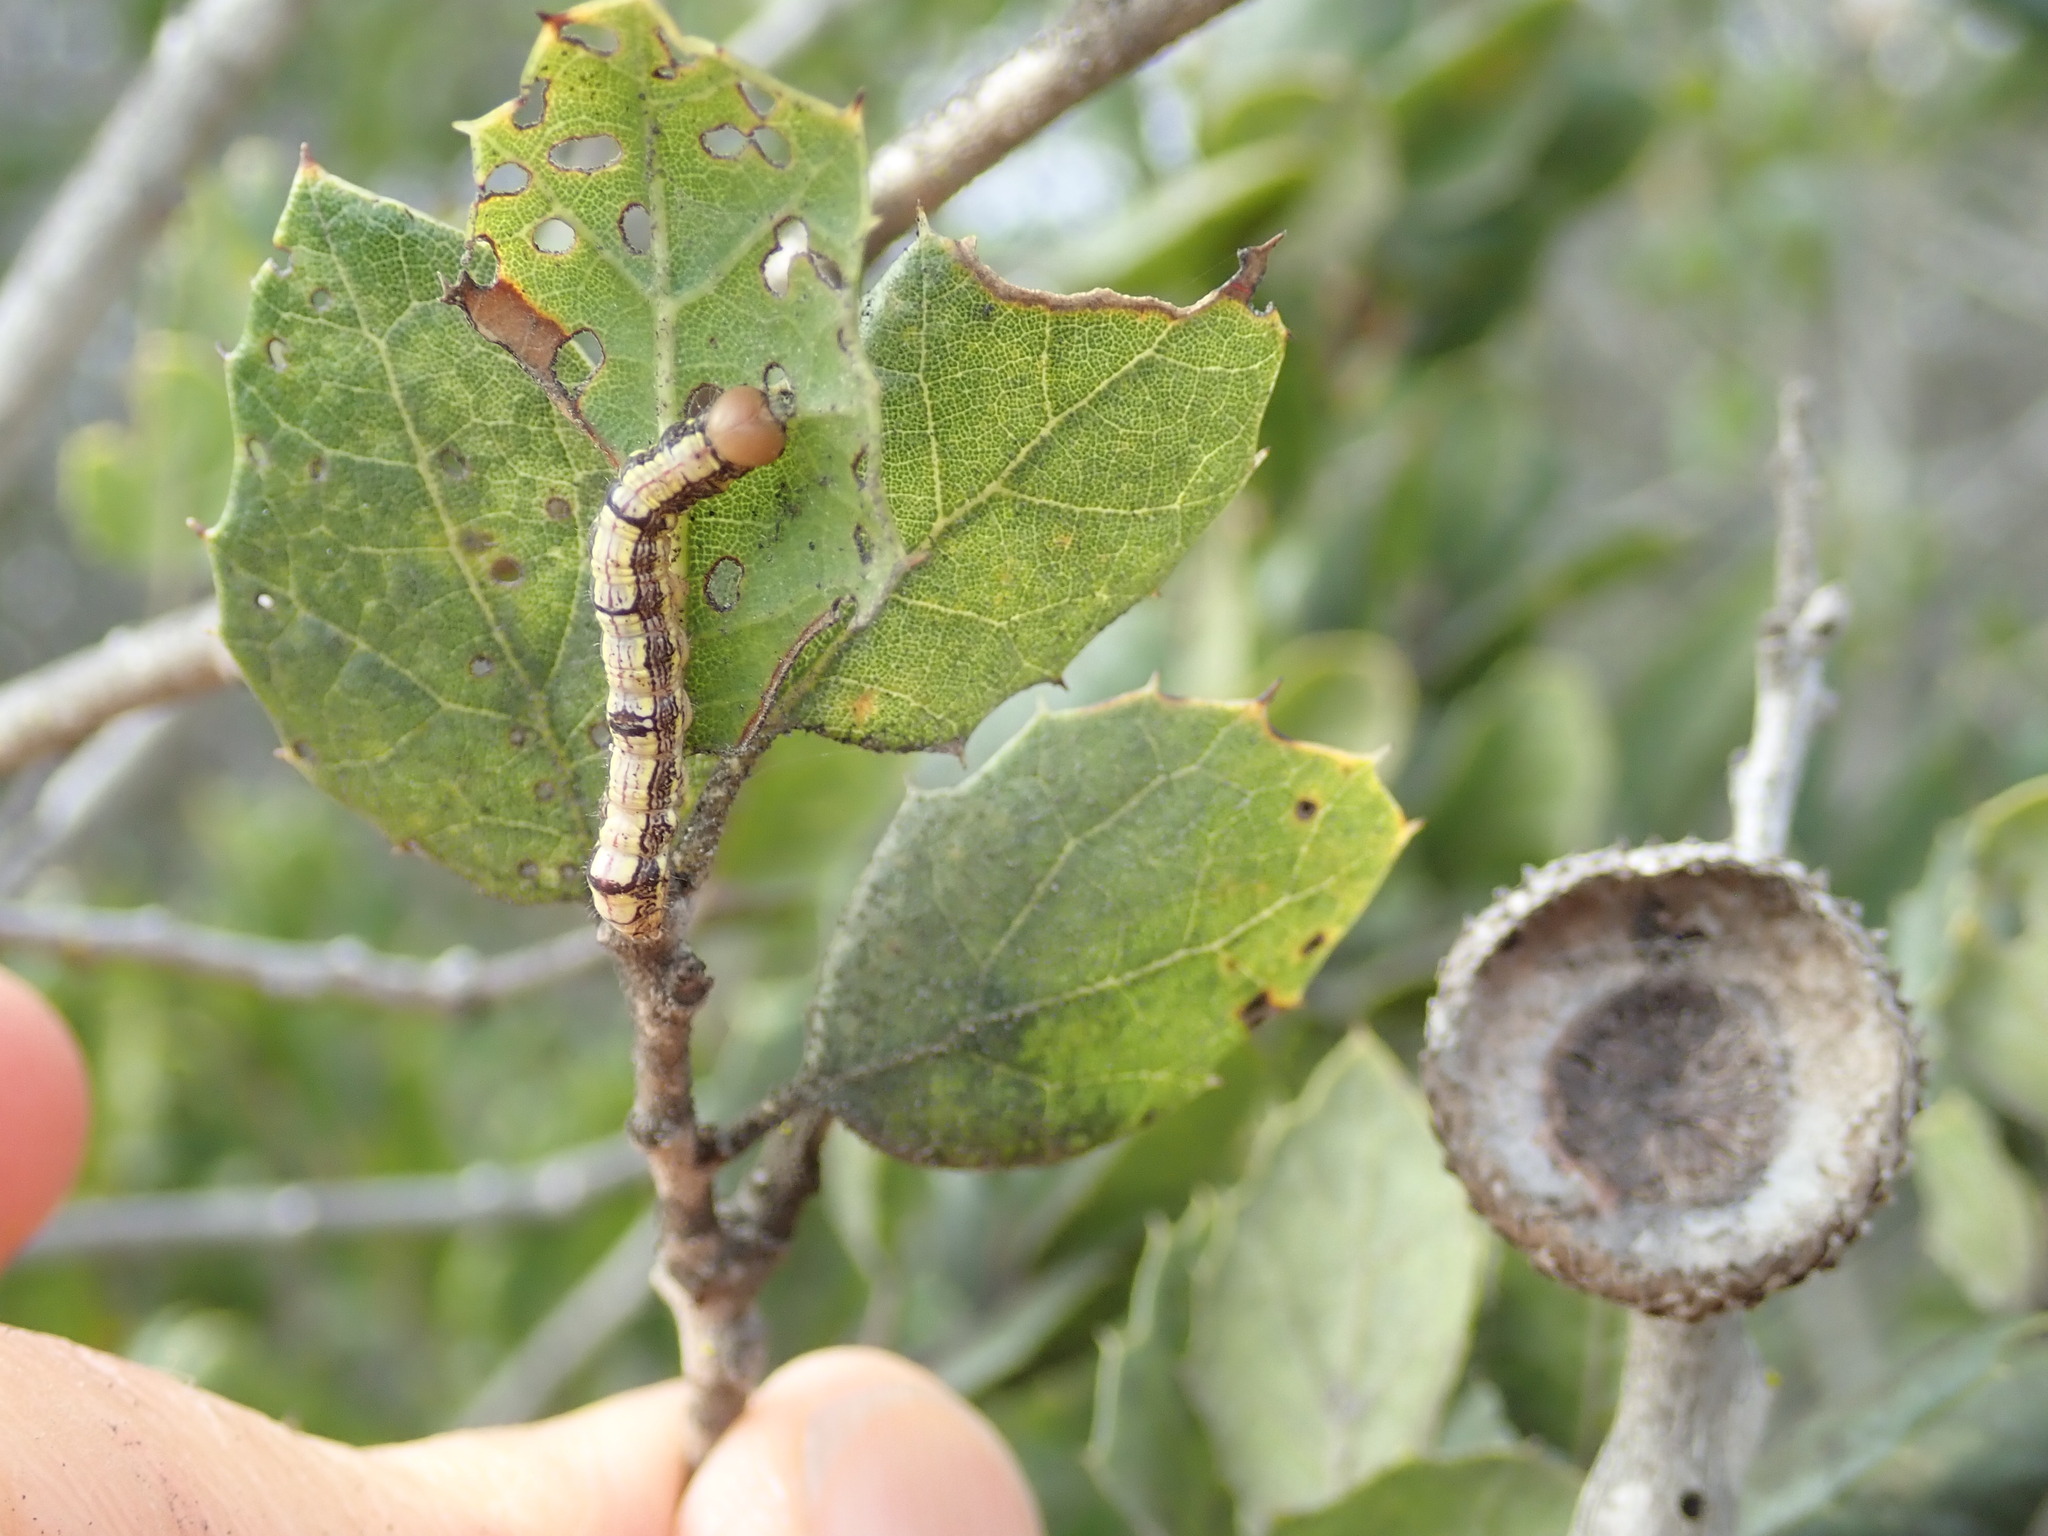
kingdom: Animalia
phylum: Arthropoda
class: Insecta
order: Lepidoptera
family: Notodontidae
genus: Phryganidia
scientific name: Phryganidia californica
